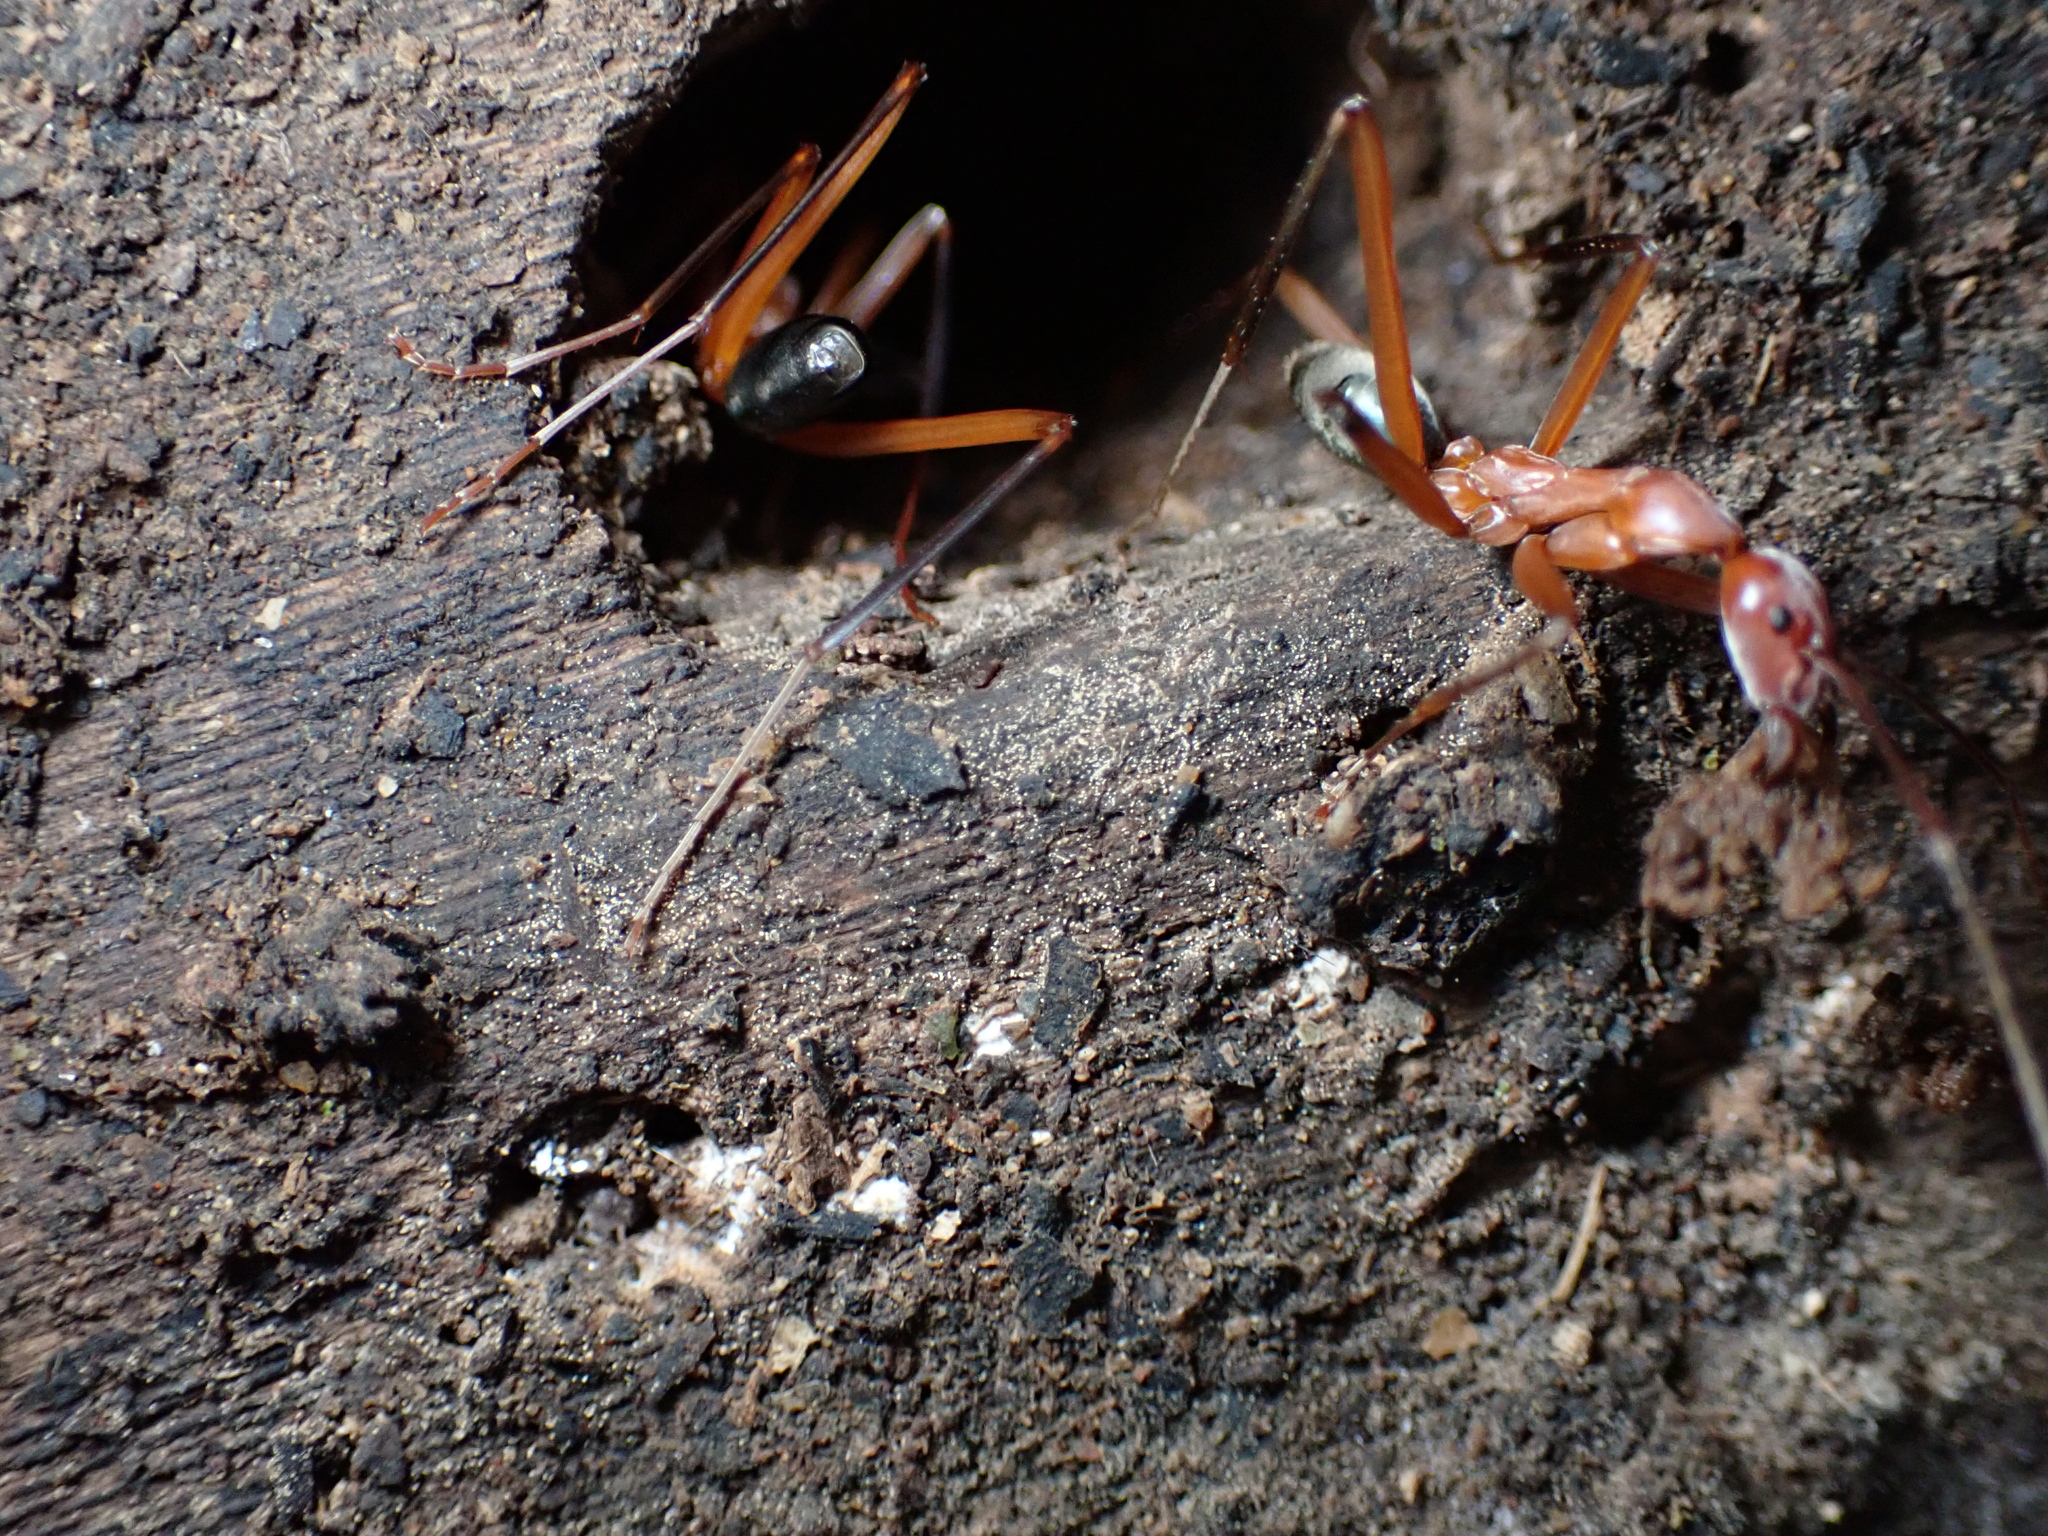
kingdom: Animalia
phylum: Arthropoda
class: Insecta
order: Hymenoptera
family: Formicidae
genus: Leptomyrmex
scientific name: Leptomyrmex tibialis
